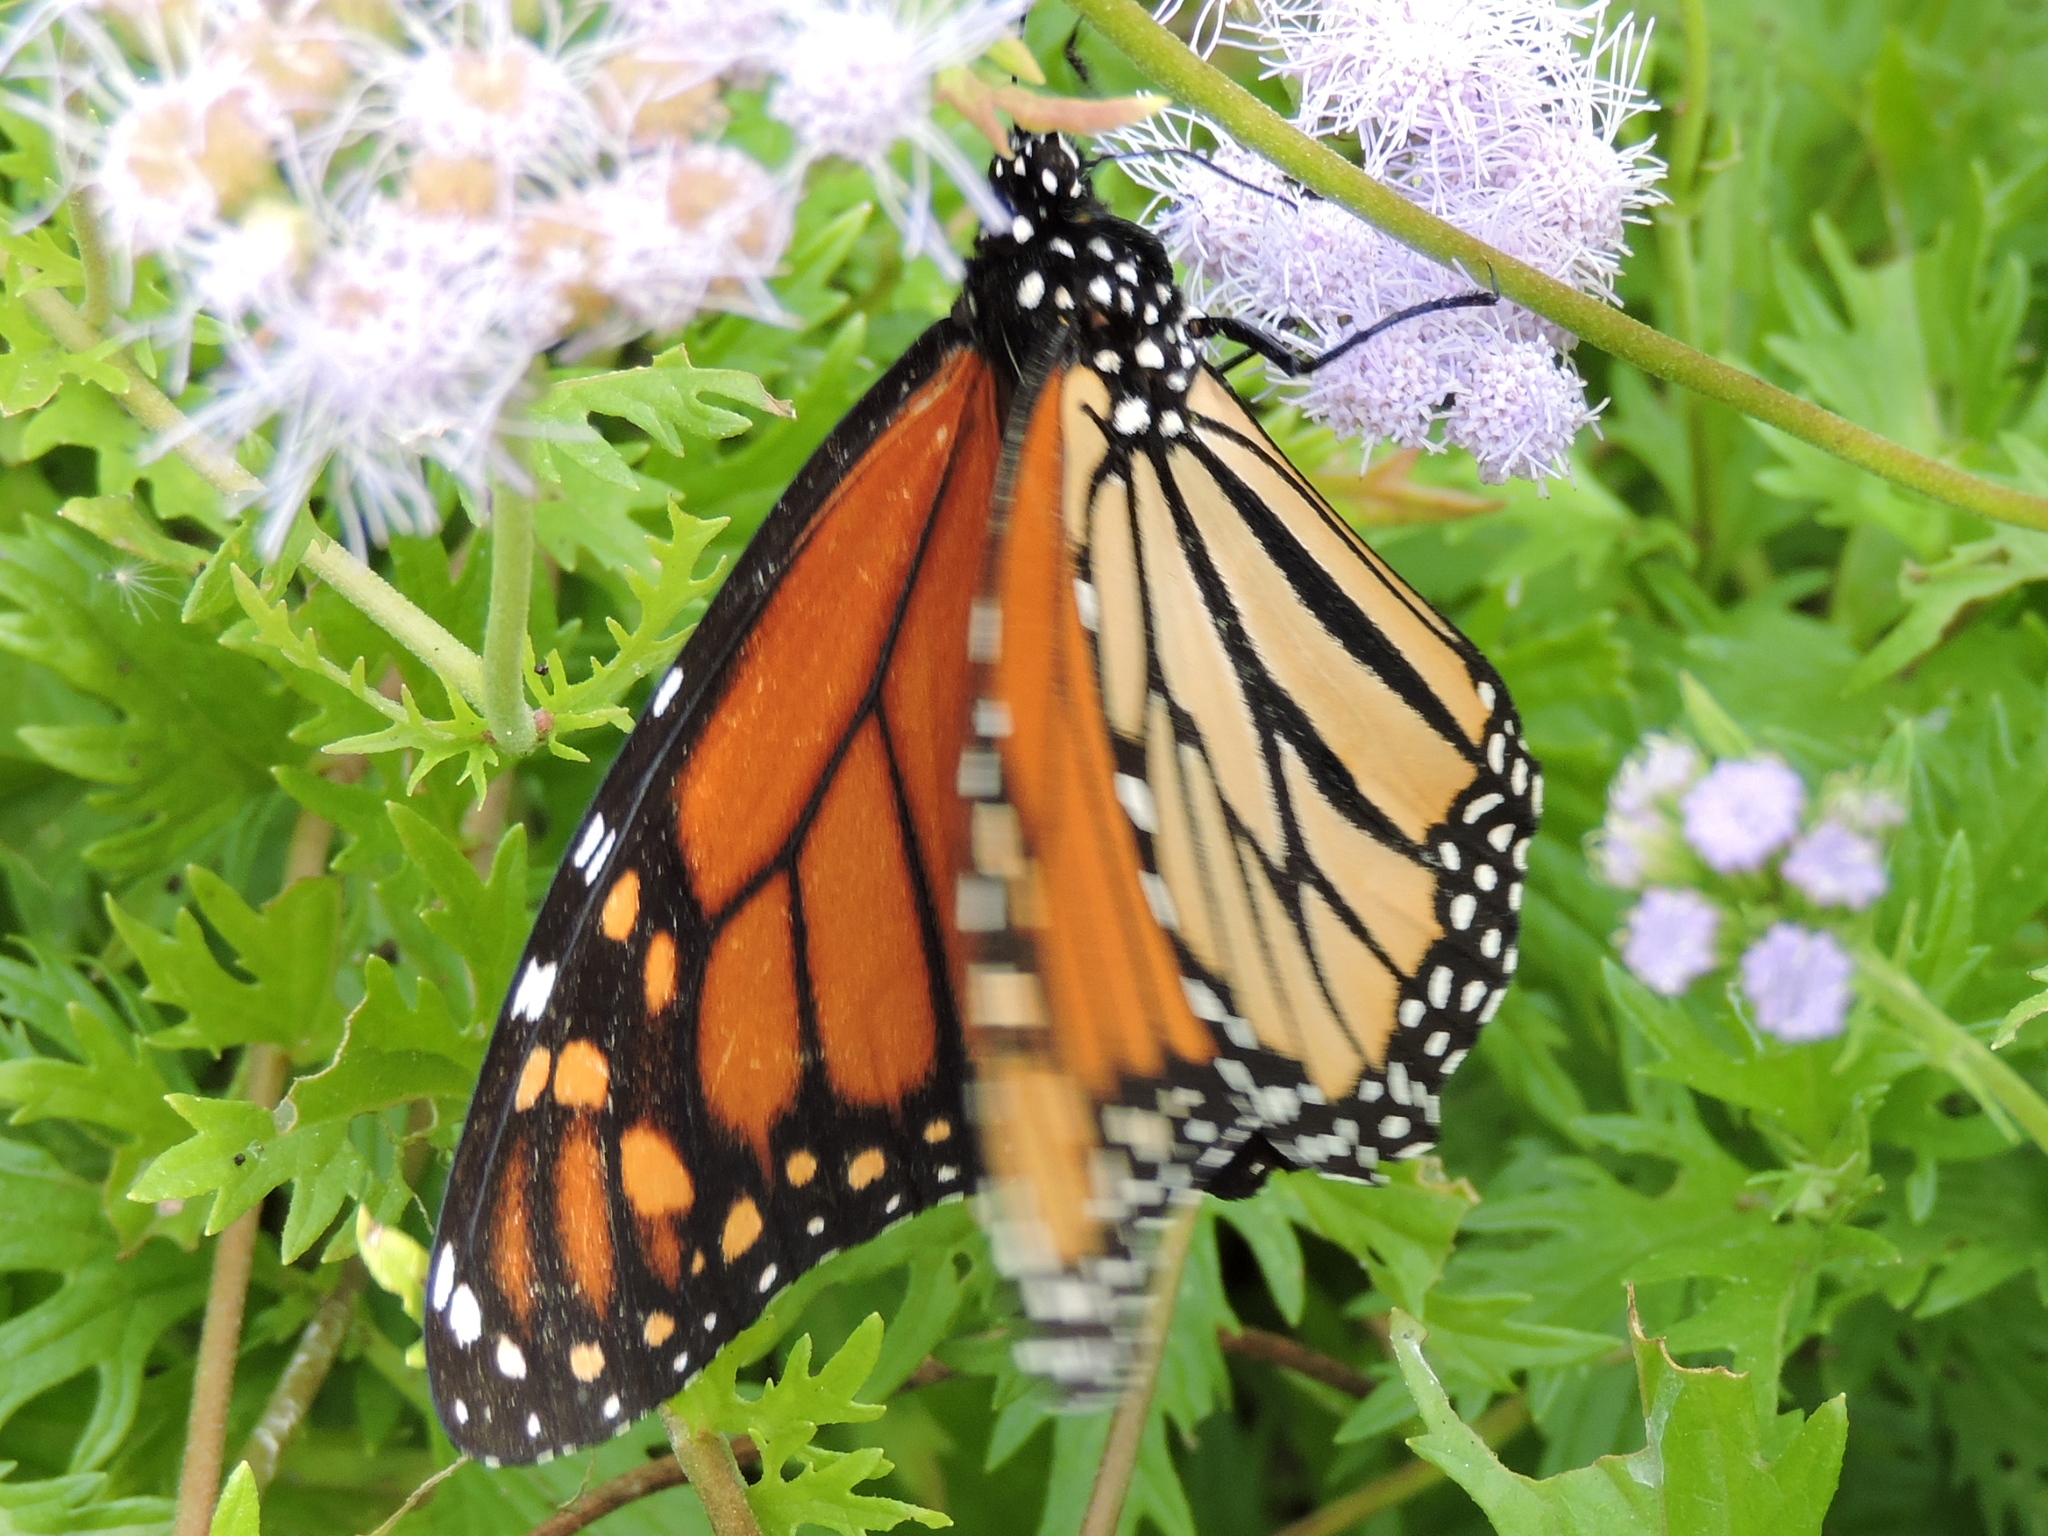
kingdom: Animalia
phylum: Arthropoda
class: Insecta
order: Lepidoptera
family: Nymphalidae
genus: Danaus
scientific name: Danaus plexippus
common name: Monarch
